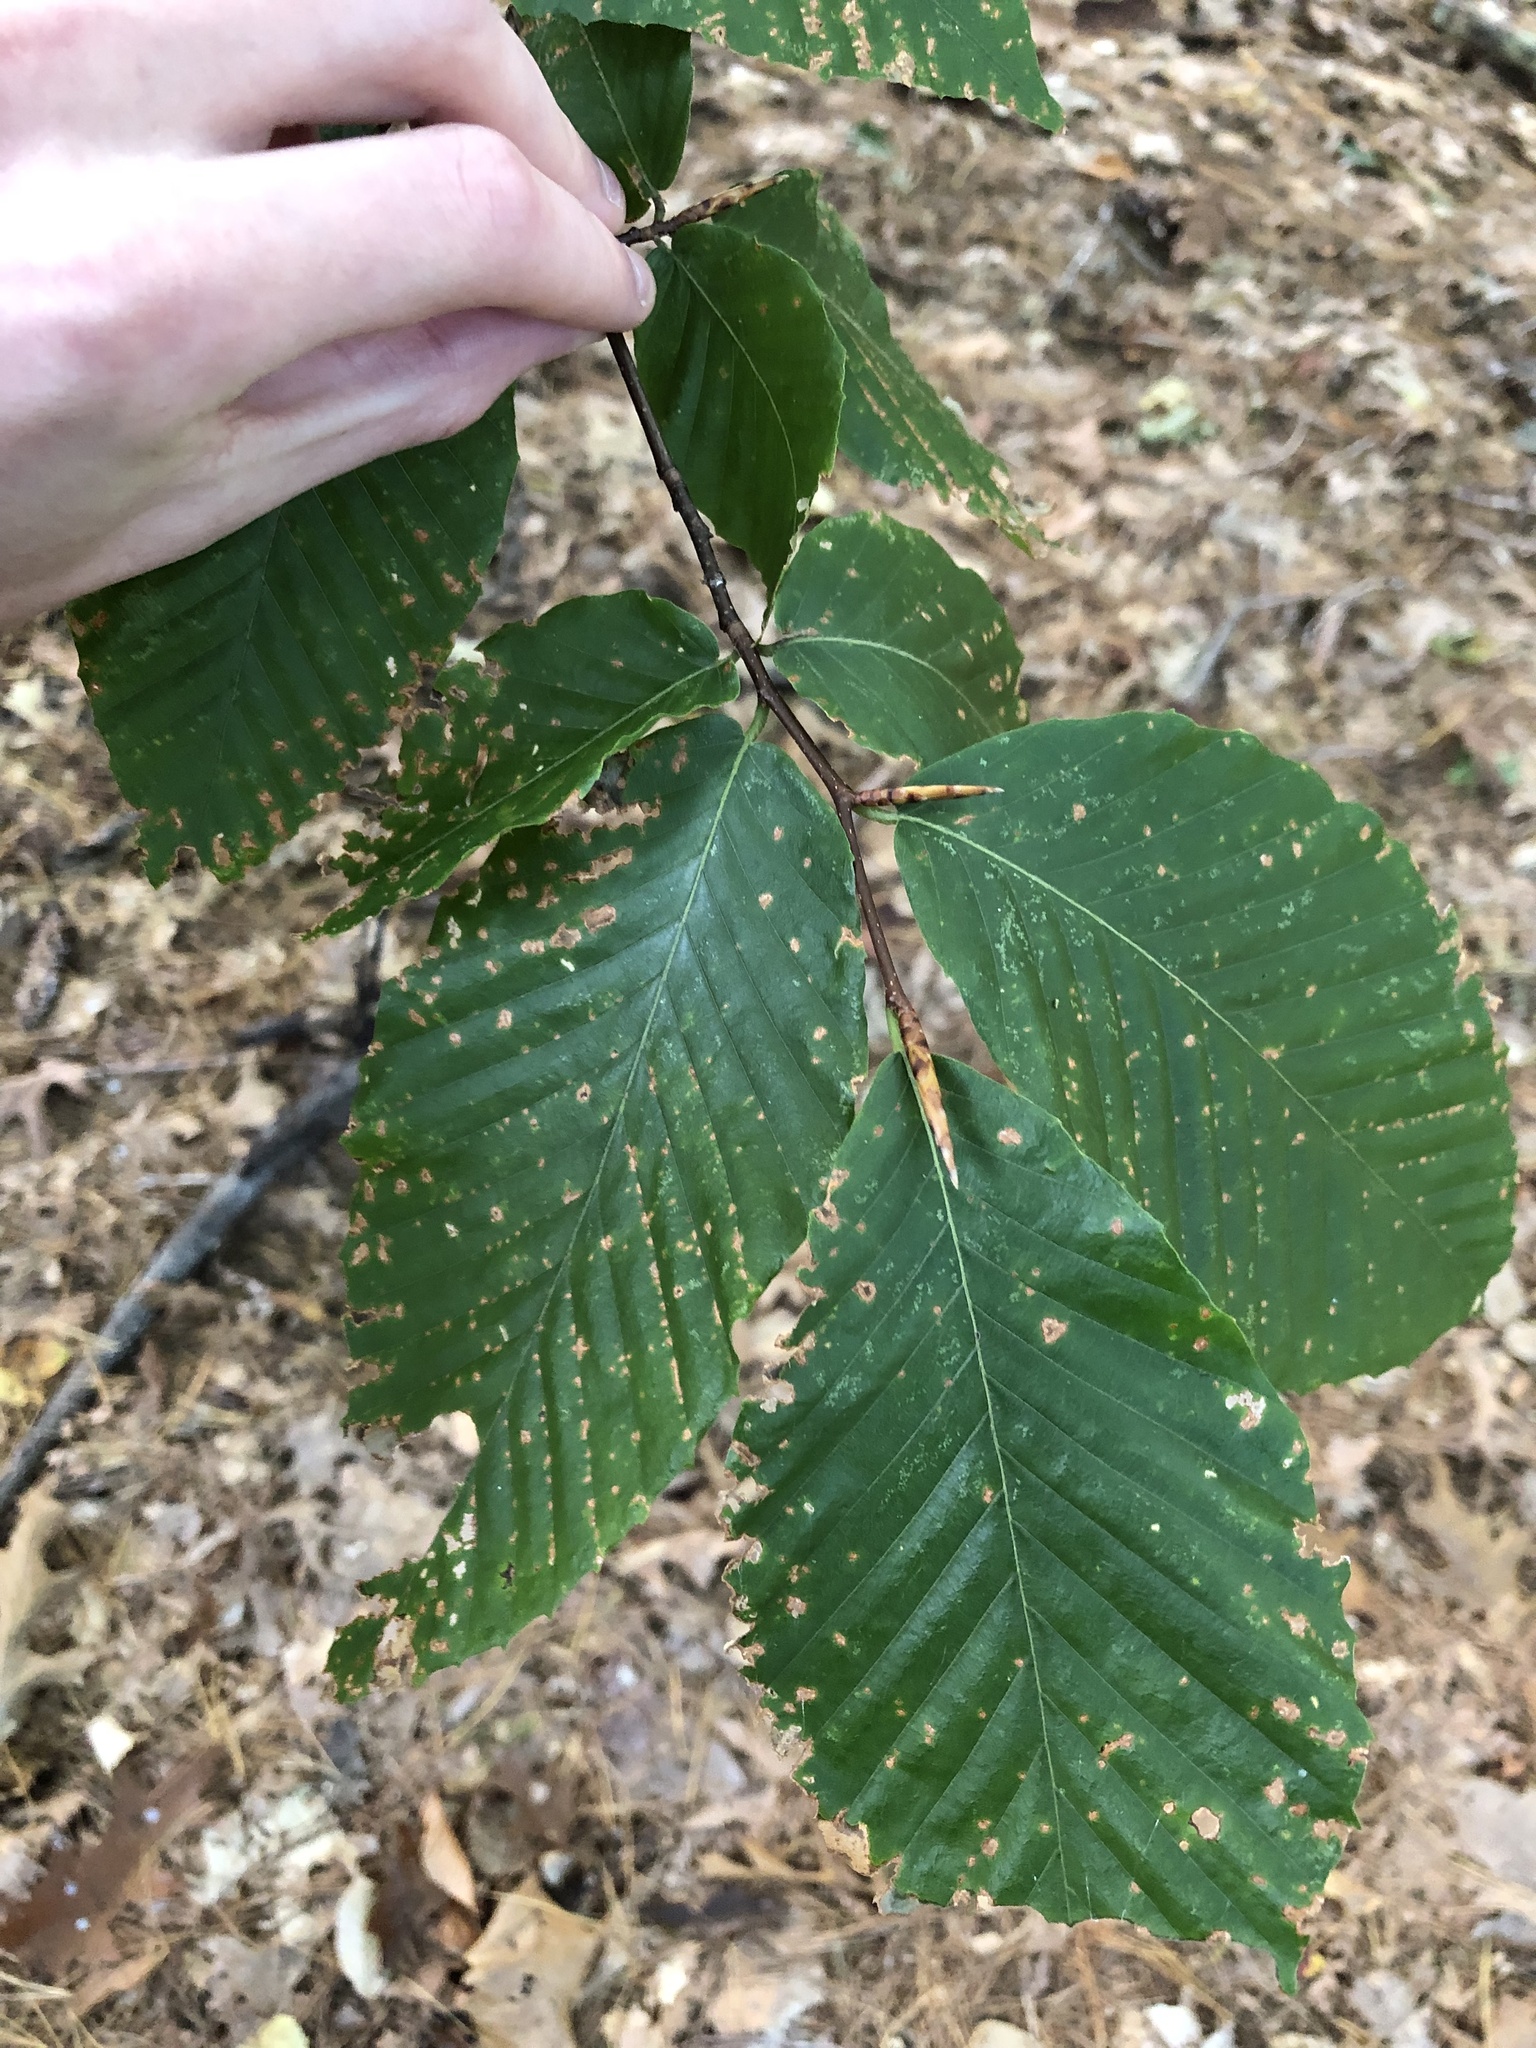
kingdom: Plantae
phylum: Tracheophyta
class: Magnoliopsida
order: Fagales
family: Fagaceae
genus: Fagus
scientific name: Fagus grandifolia
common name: American beech
